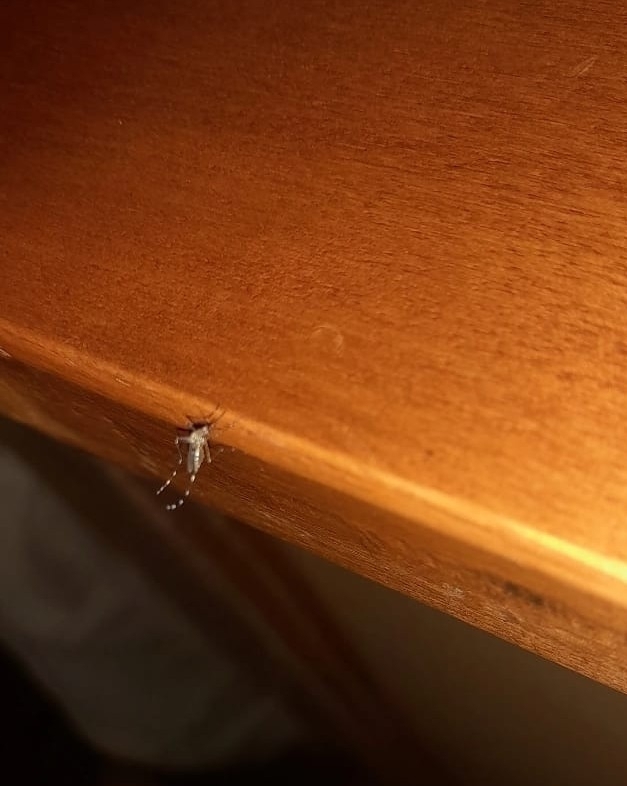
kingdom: Animalia
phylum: Arthropoda
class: Insecta
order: Diptera
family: Culicidae
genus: Aedes
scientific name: Aedes aegypti
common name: Yellow fever mosquito
